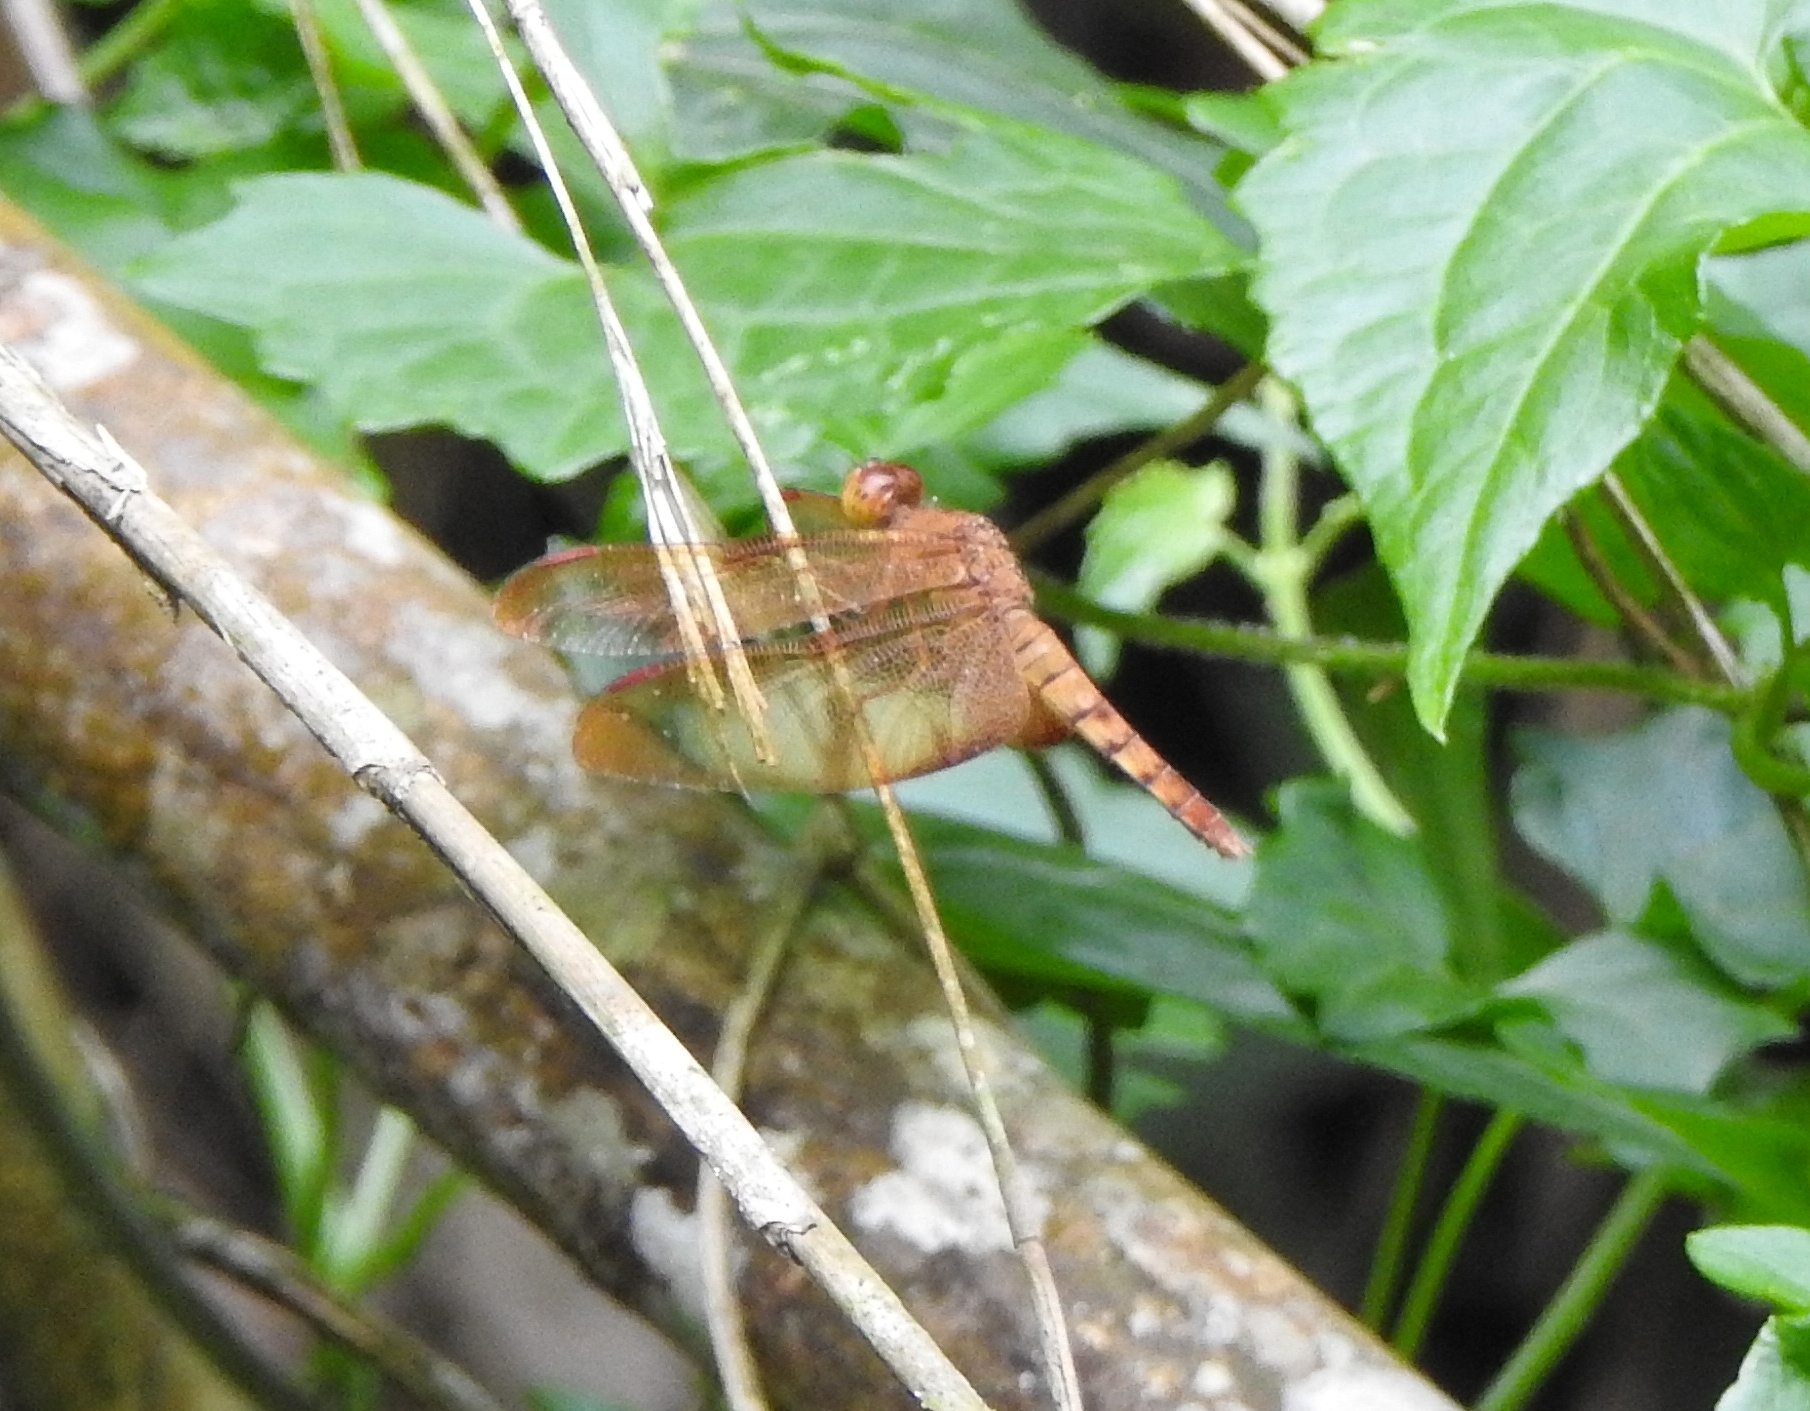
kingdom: Animalia
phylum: Arthropoda
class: Insecta
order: Odonata
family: Libellulidae
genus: Neurothemis
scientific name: Neurothemis fulvia
